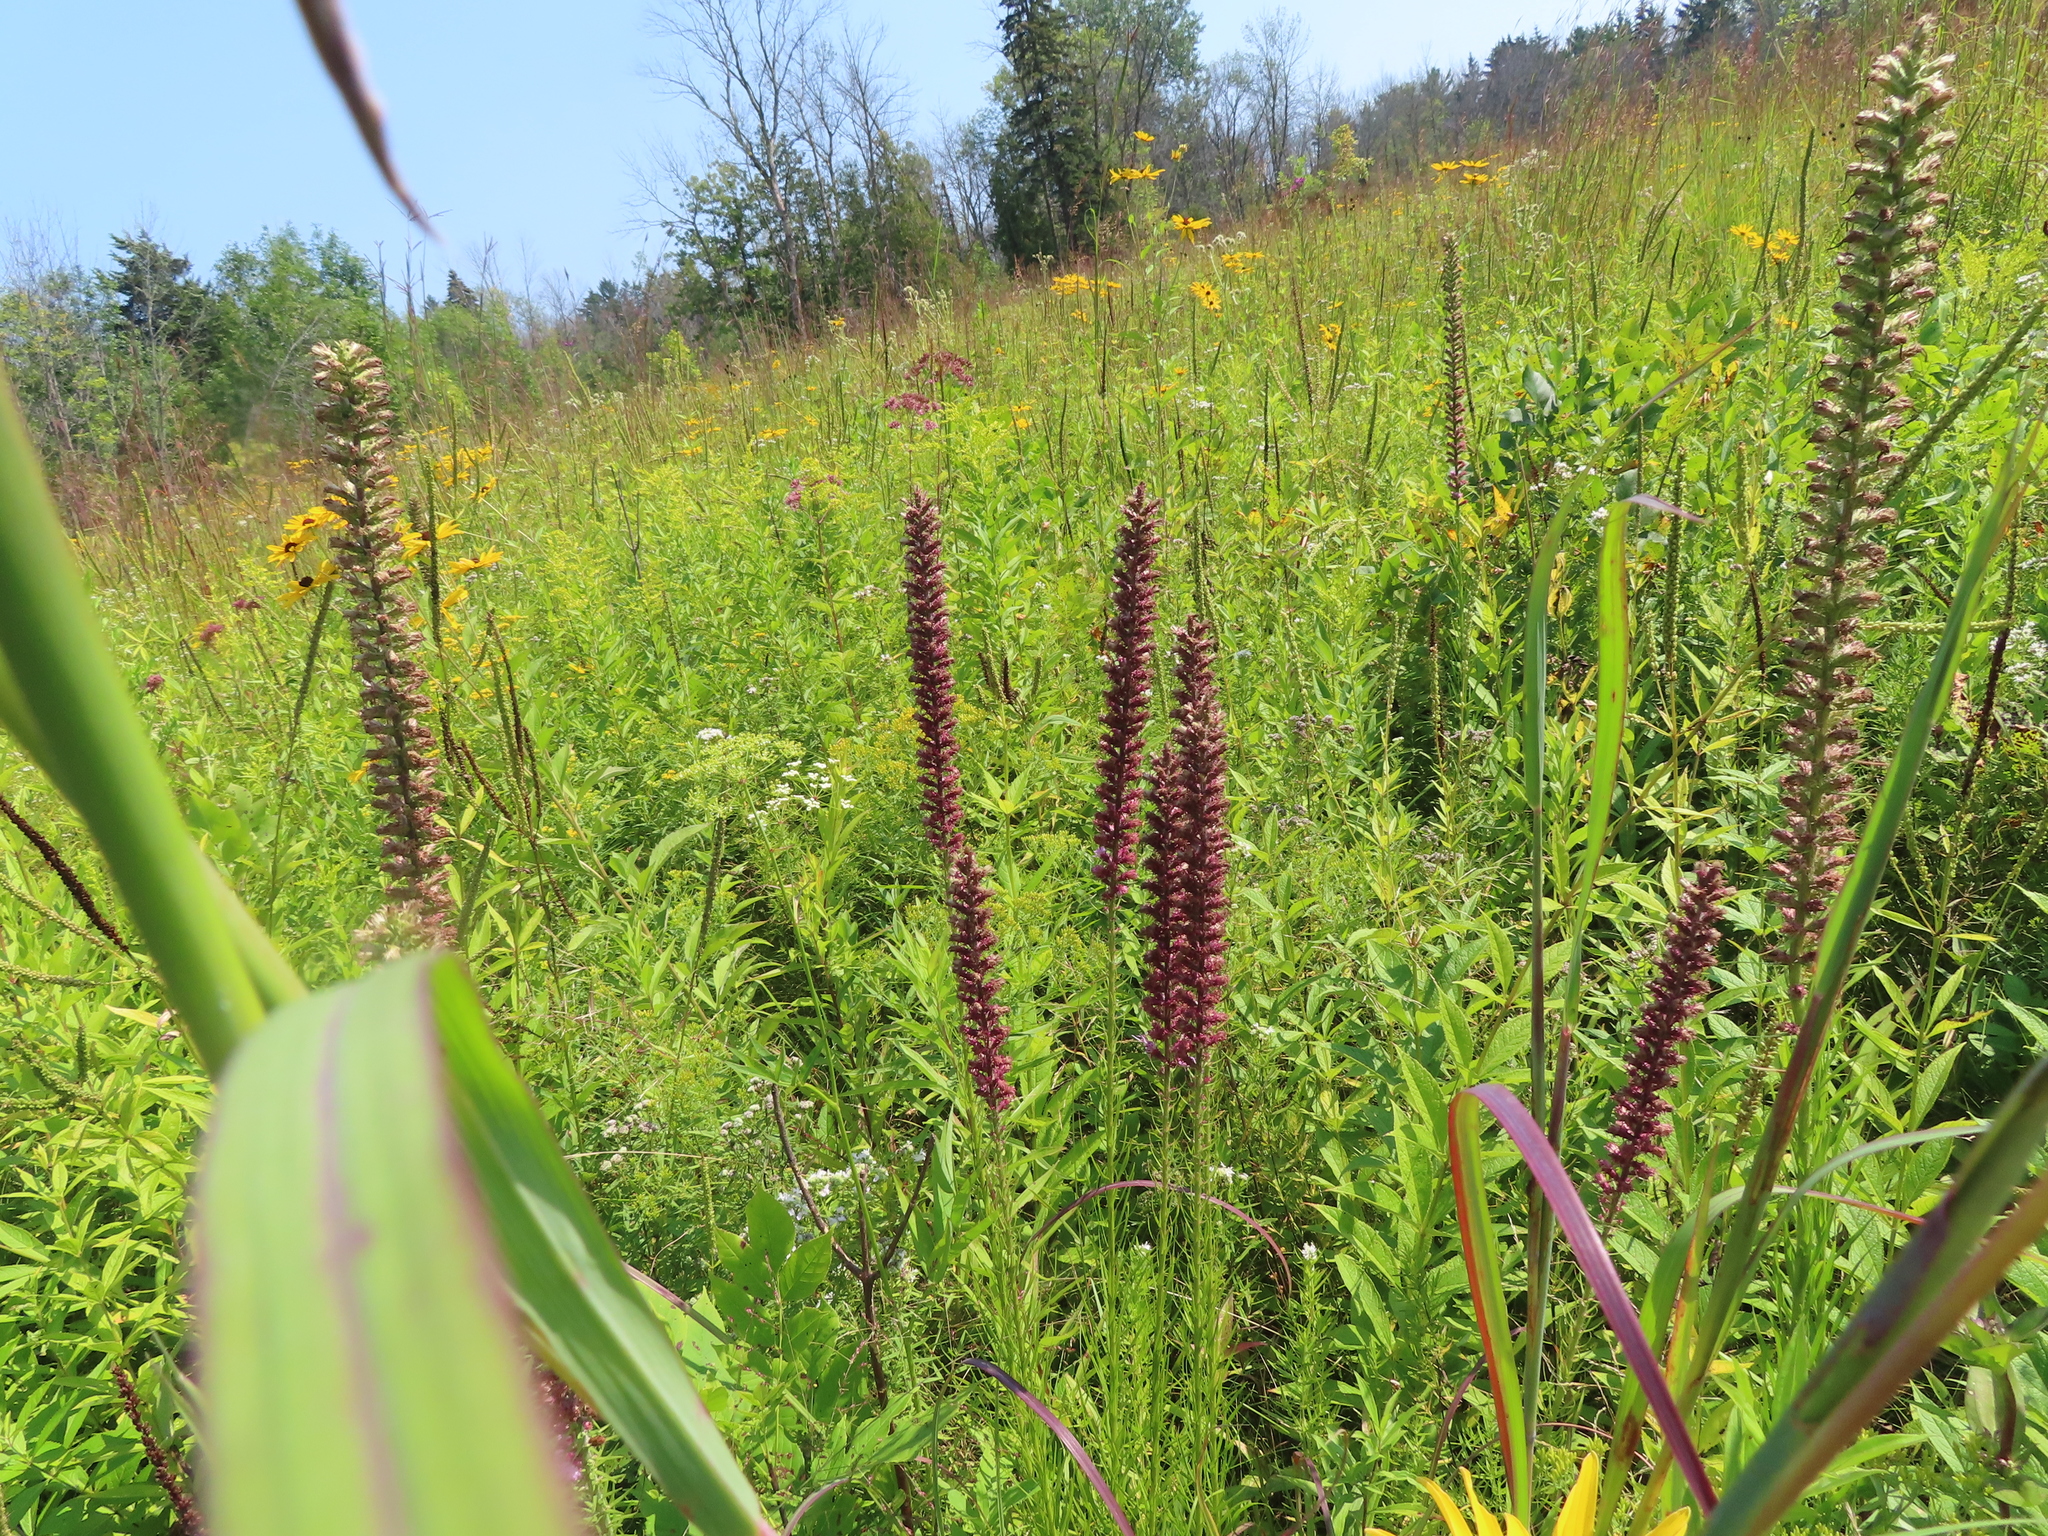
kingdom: Plantae
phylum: Tracheophyta
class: Magnoliopsida
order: Asterales
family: Asteraceae
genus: Liatris
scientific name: Liatris pycnostachya
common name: Cattail gayfeather
